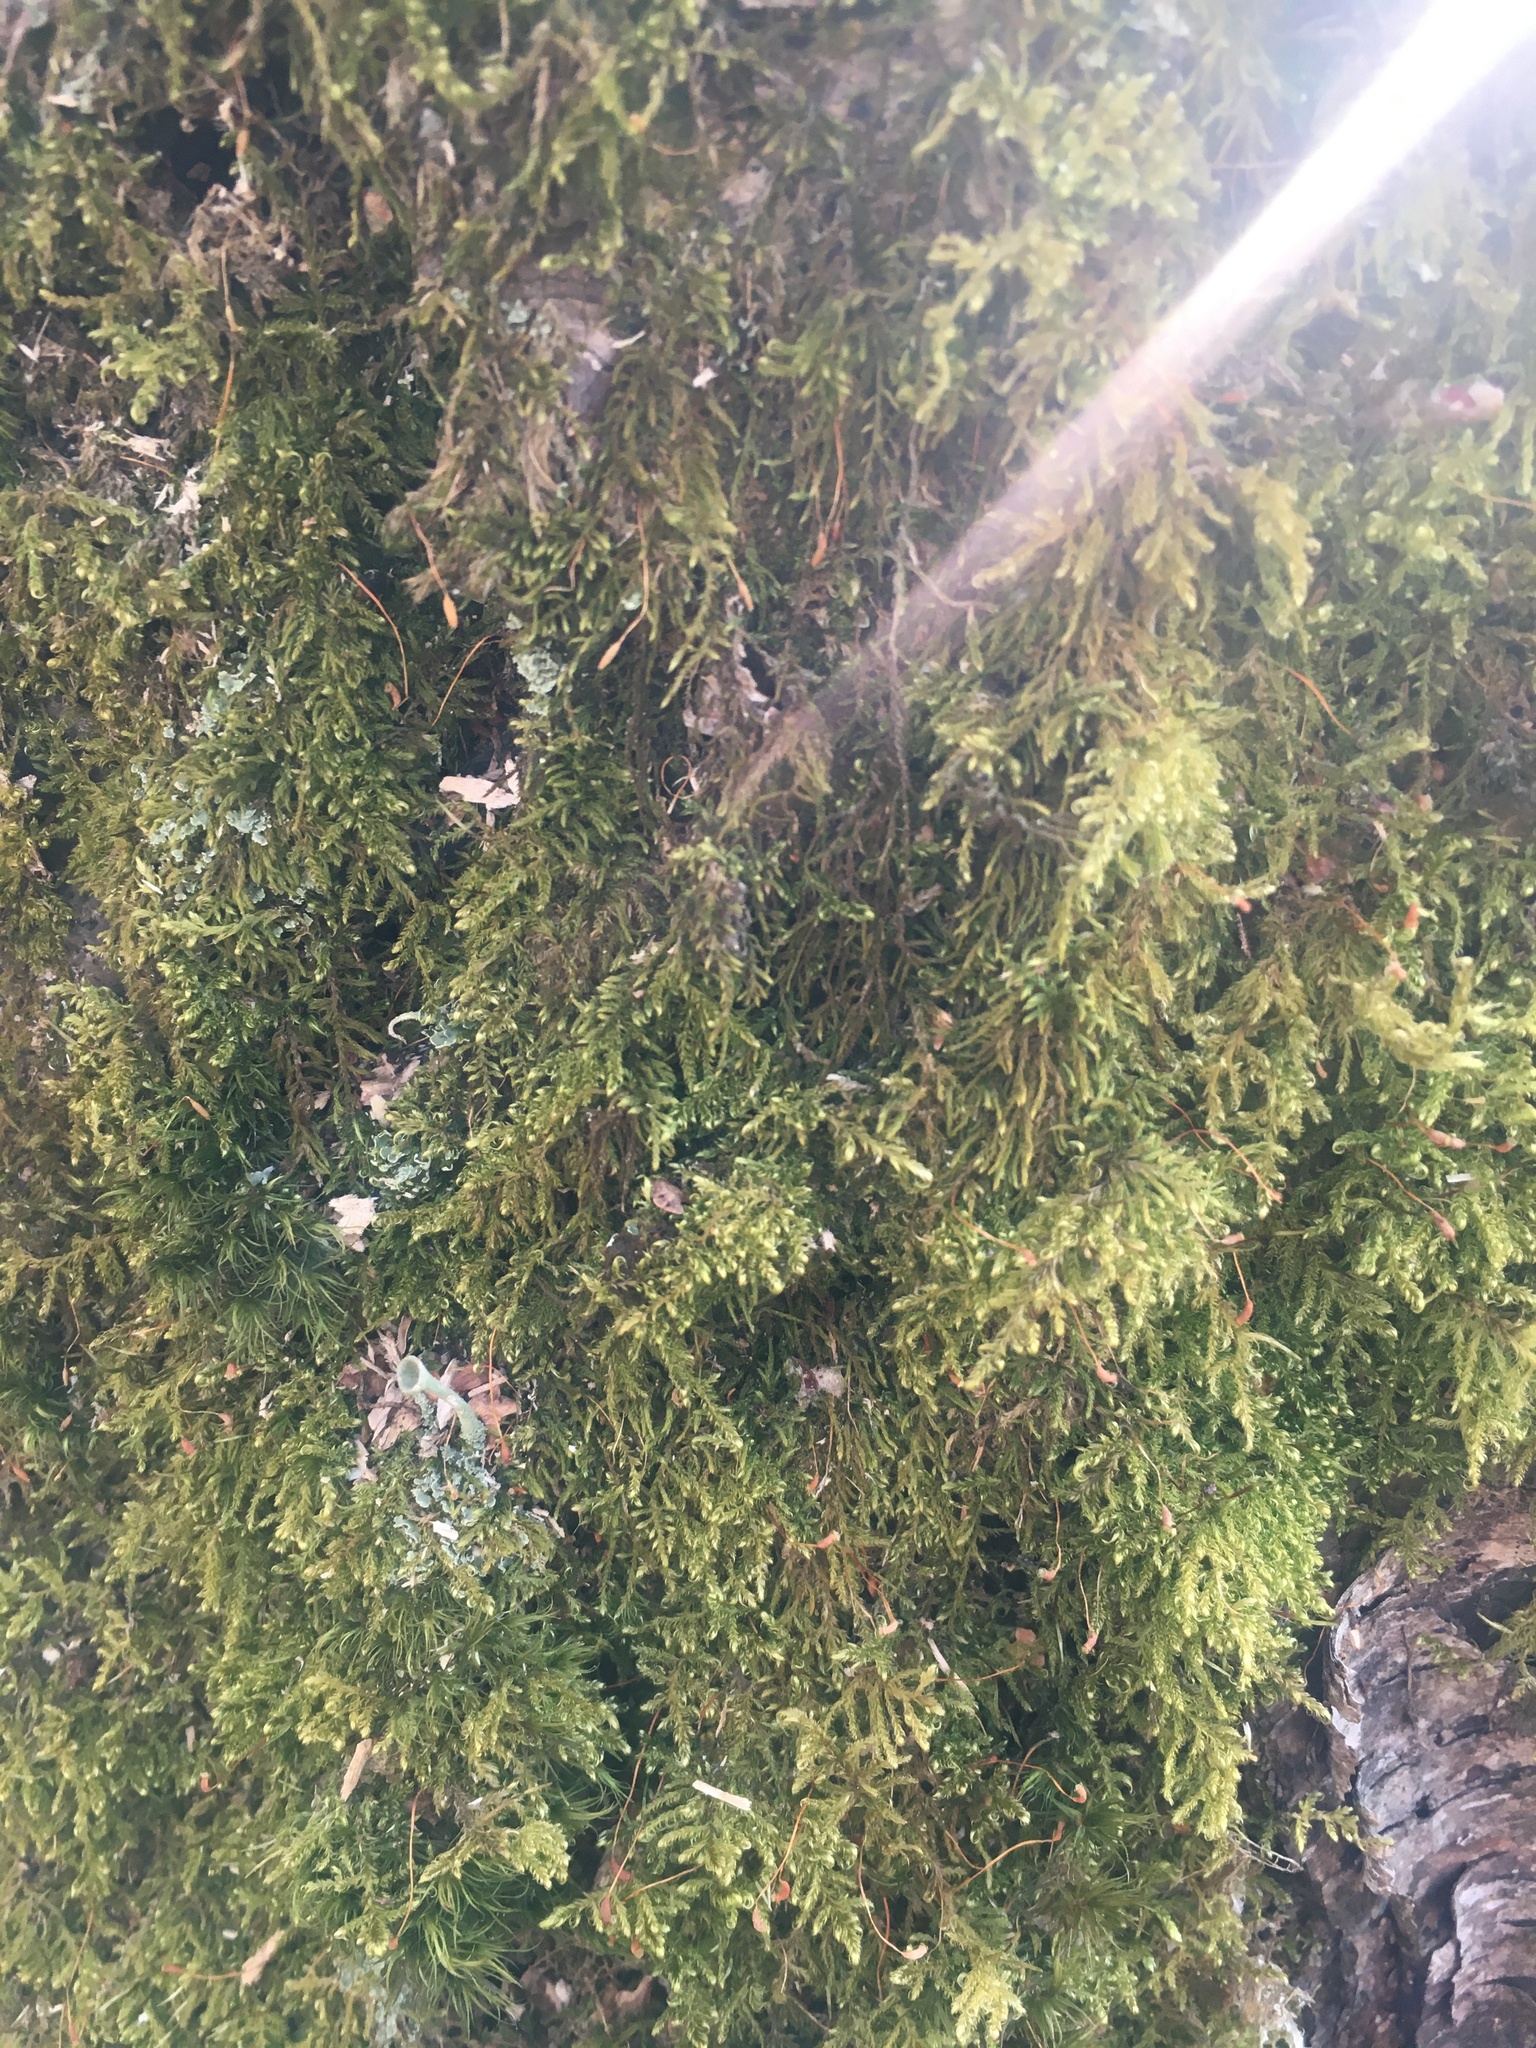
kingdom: Plantae
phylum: Bryophyta
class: Bryopsida
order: Hypnales
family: Scorpidiaceae
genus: Sanionia
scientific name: Sanionia uncinata
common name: Sickle moss
